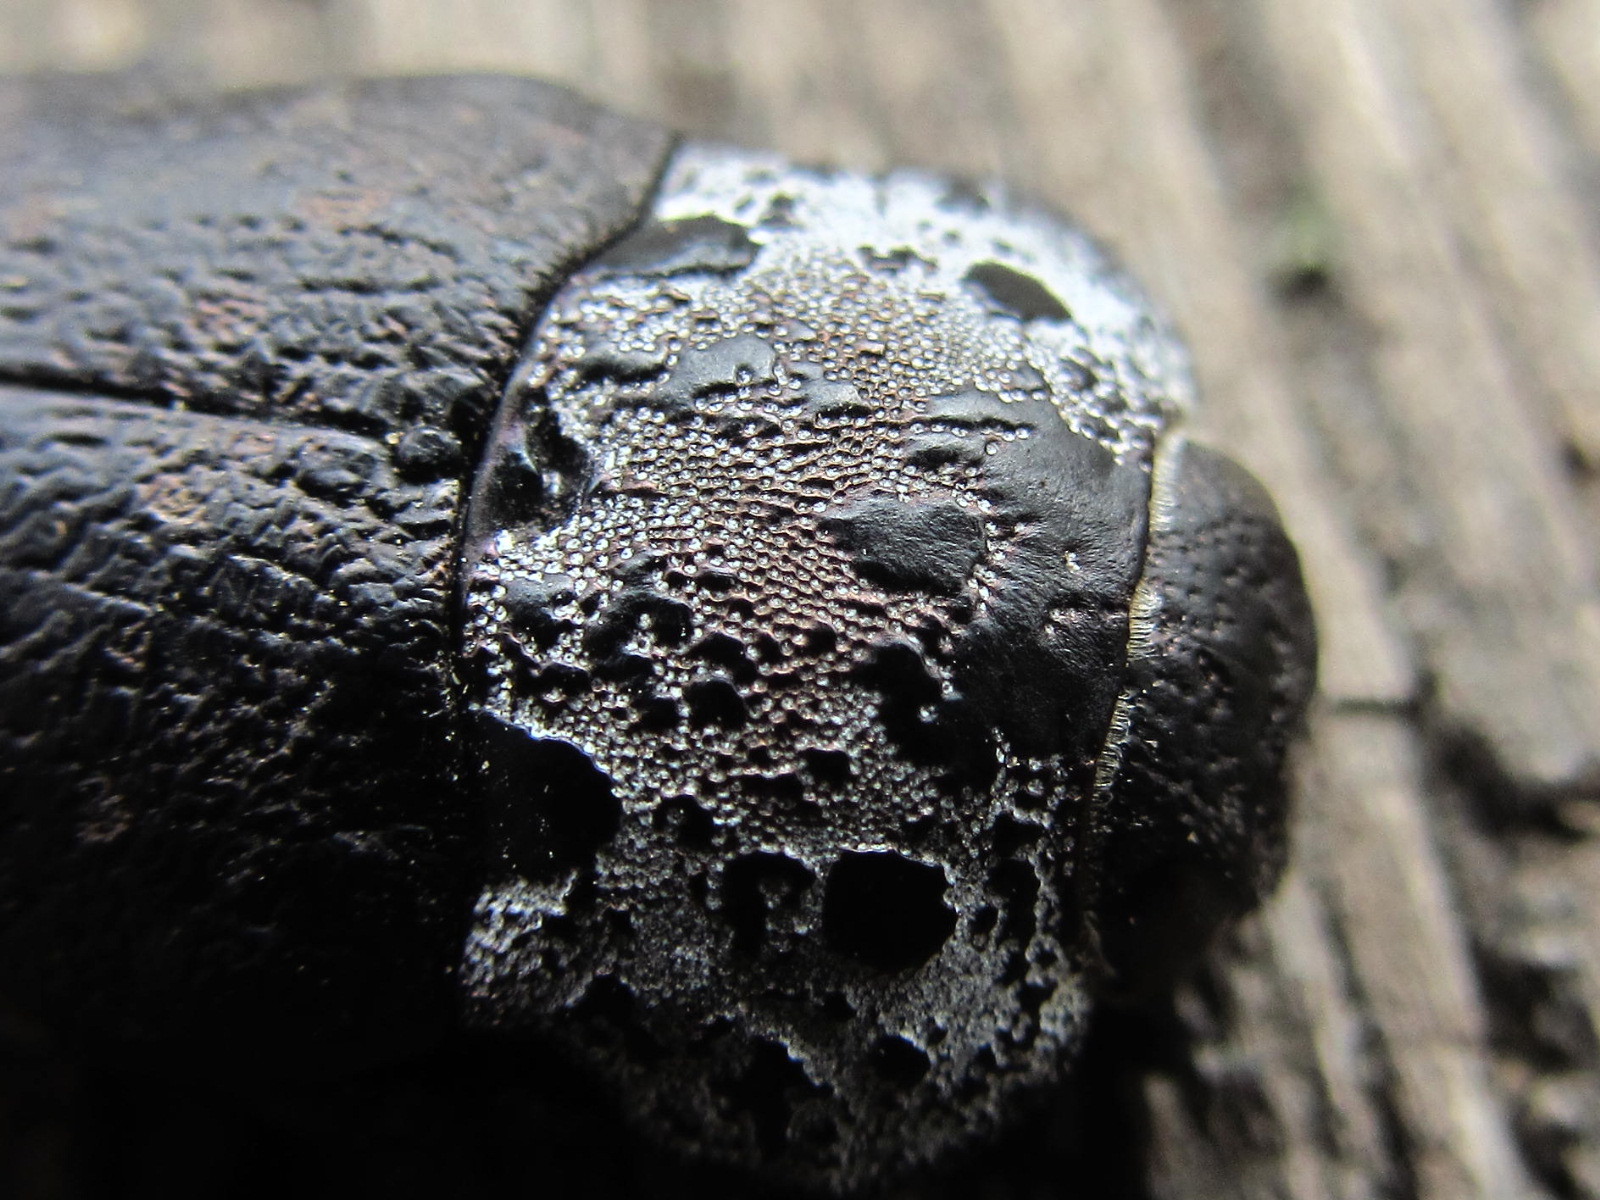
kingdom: Animalia
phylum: Arthropoda
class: Insecta
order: Coleoptera
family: Buprestidae
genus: Capnodis
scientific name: Capnodis tenebrionis
